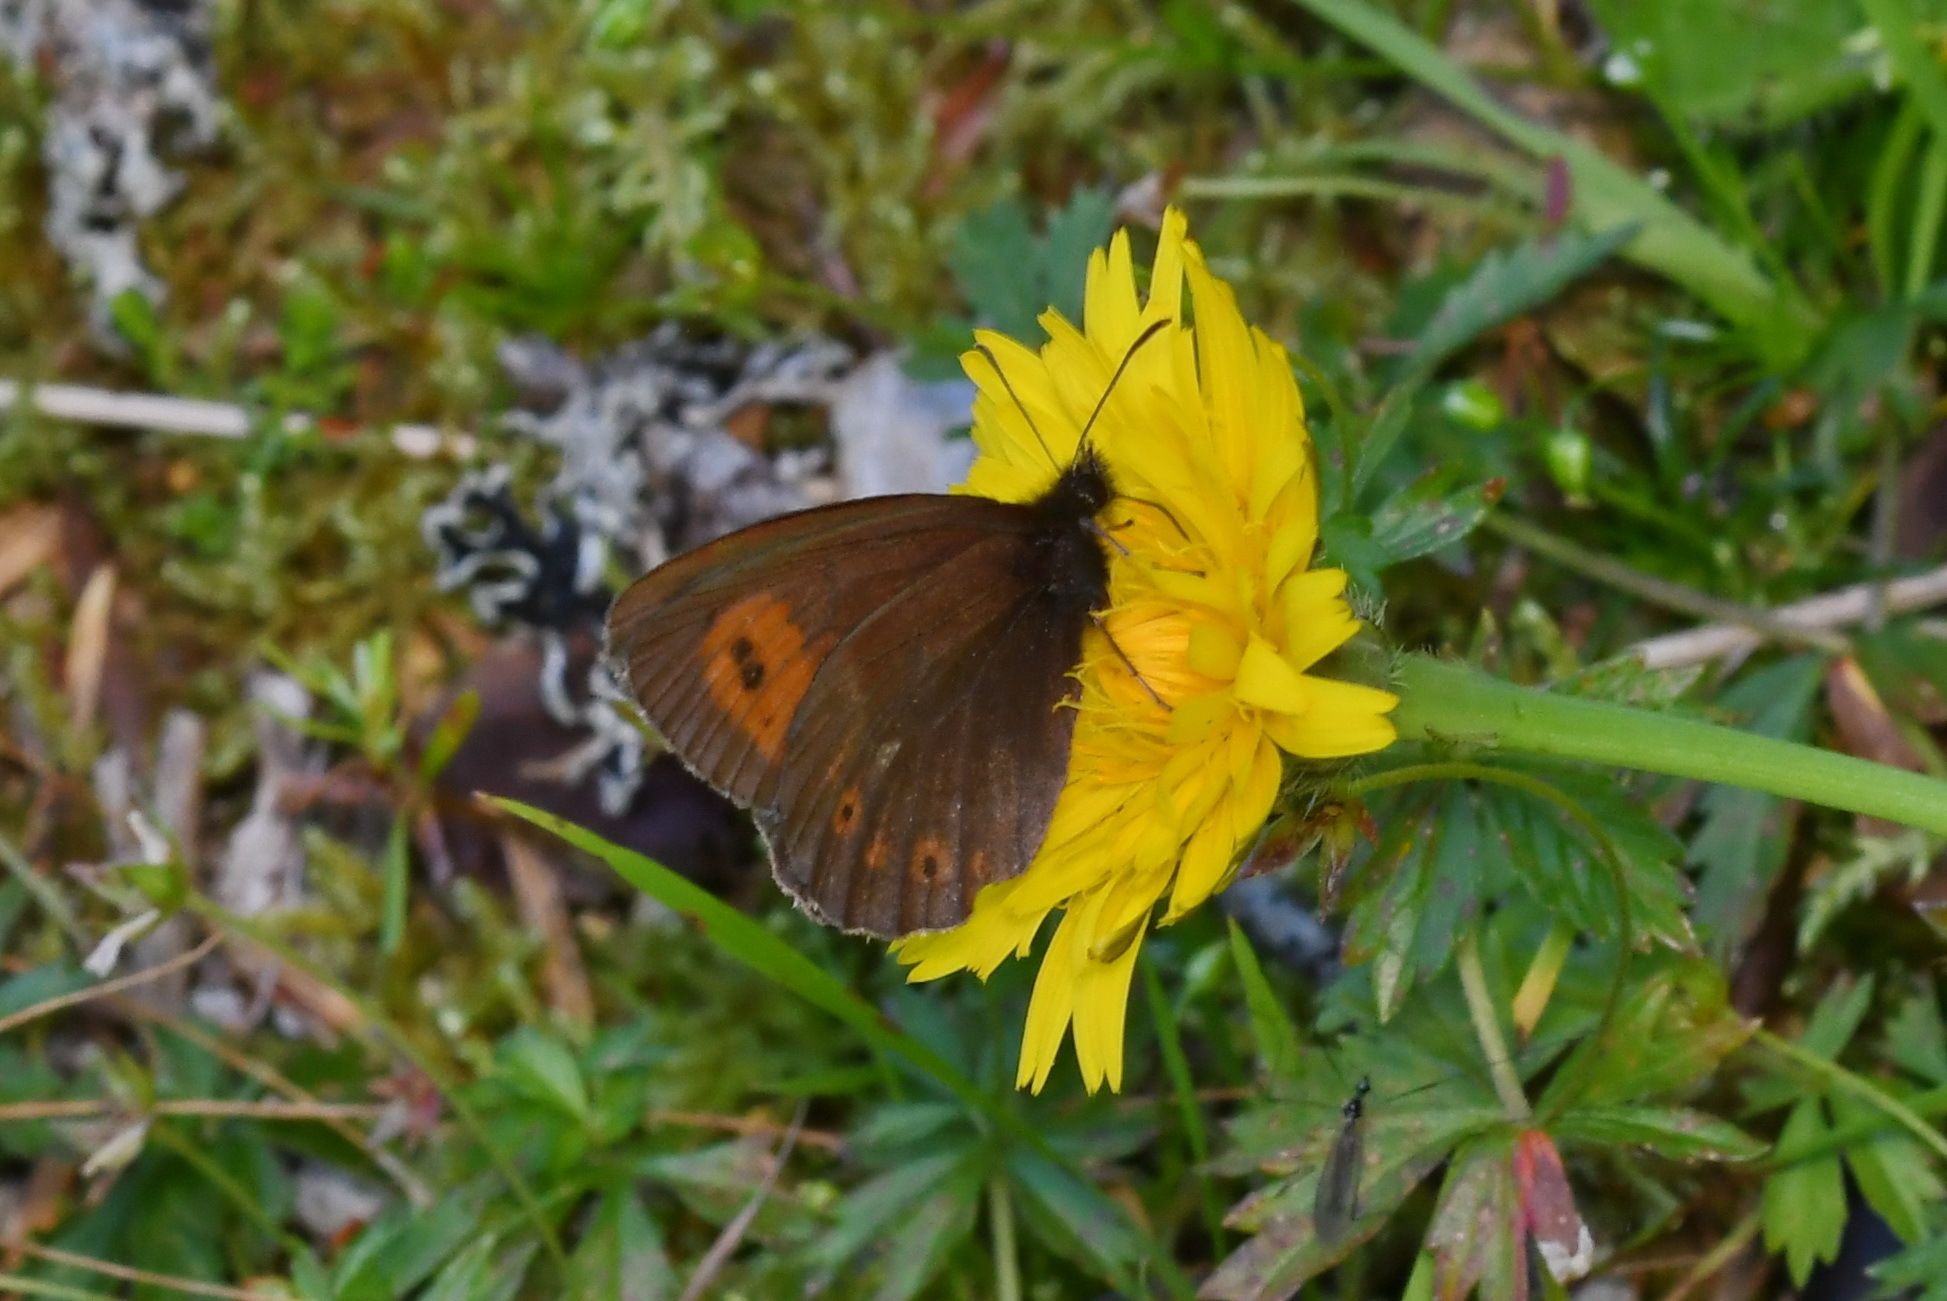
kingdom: Animalia
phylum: Arthropoda
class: Insecta
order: Lepidoptera
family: Nymphalidae
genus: Erebia
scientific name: Erebia euryale
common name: Large ringlet
